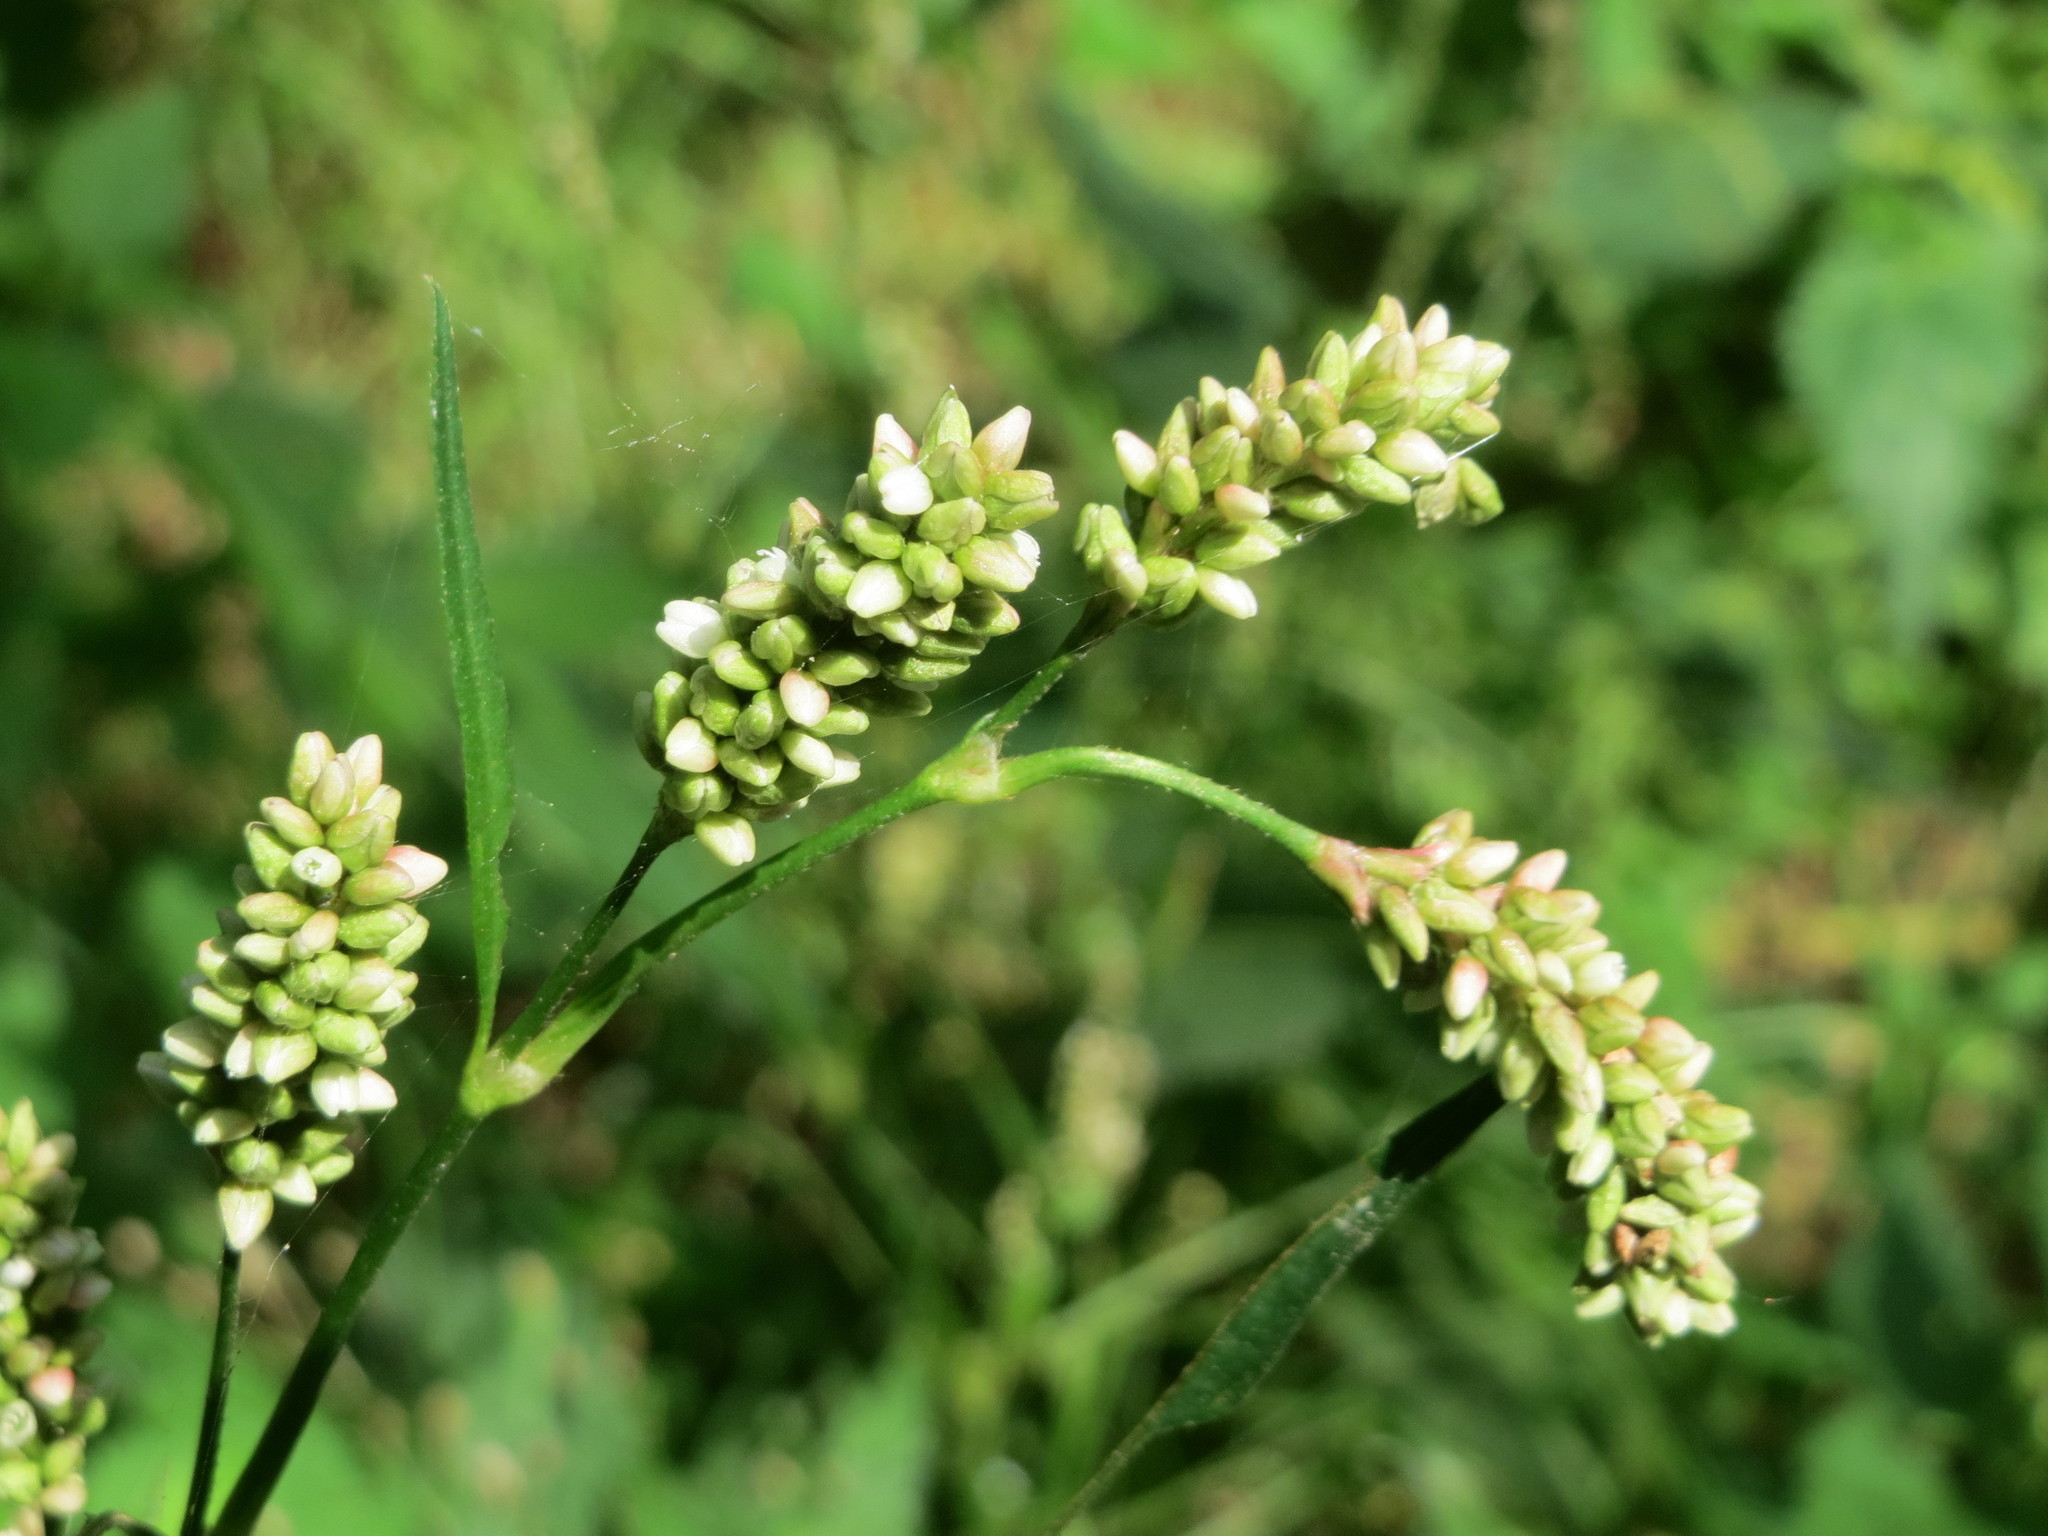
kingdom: Plantae
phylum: Tracheophyta
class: Magnoliopsida
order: Caryophyllales
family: Polygonaceae
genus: Persicaria
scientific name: Persicaria lapathifolia
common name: Curlytop knotweed
